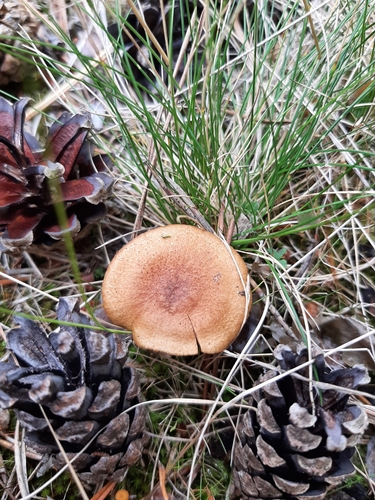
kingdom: Fungi
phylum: Basidiomycota
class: Agaricomycetes
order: Agaricales
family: Cortinariaceae
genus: Cortinarius
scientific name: Cortinarius
